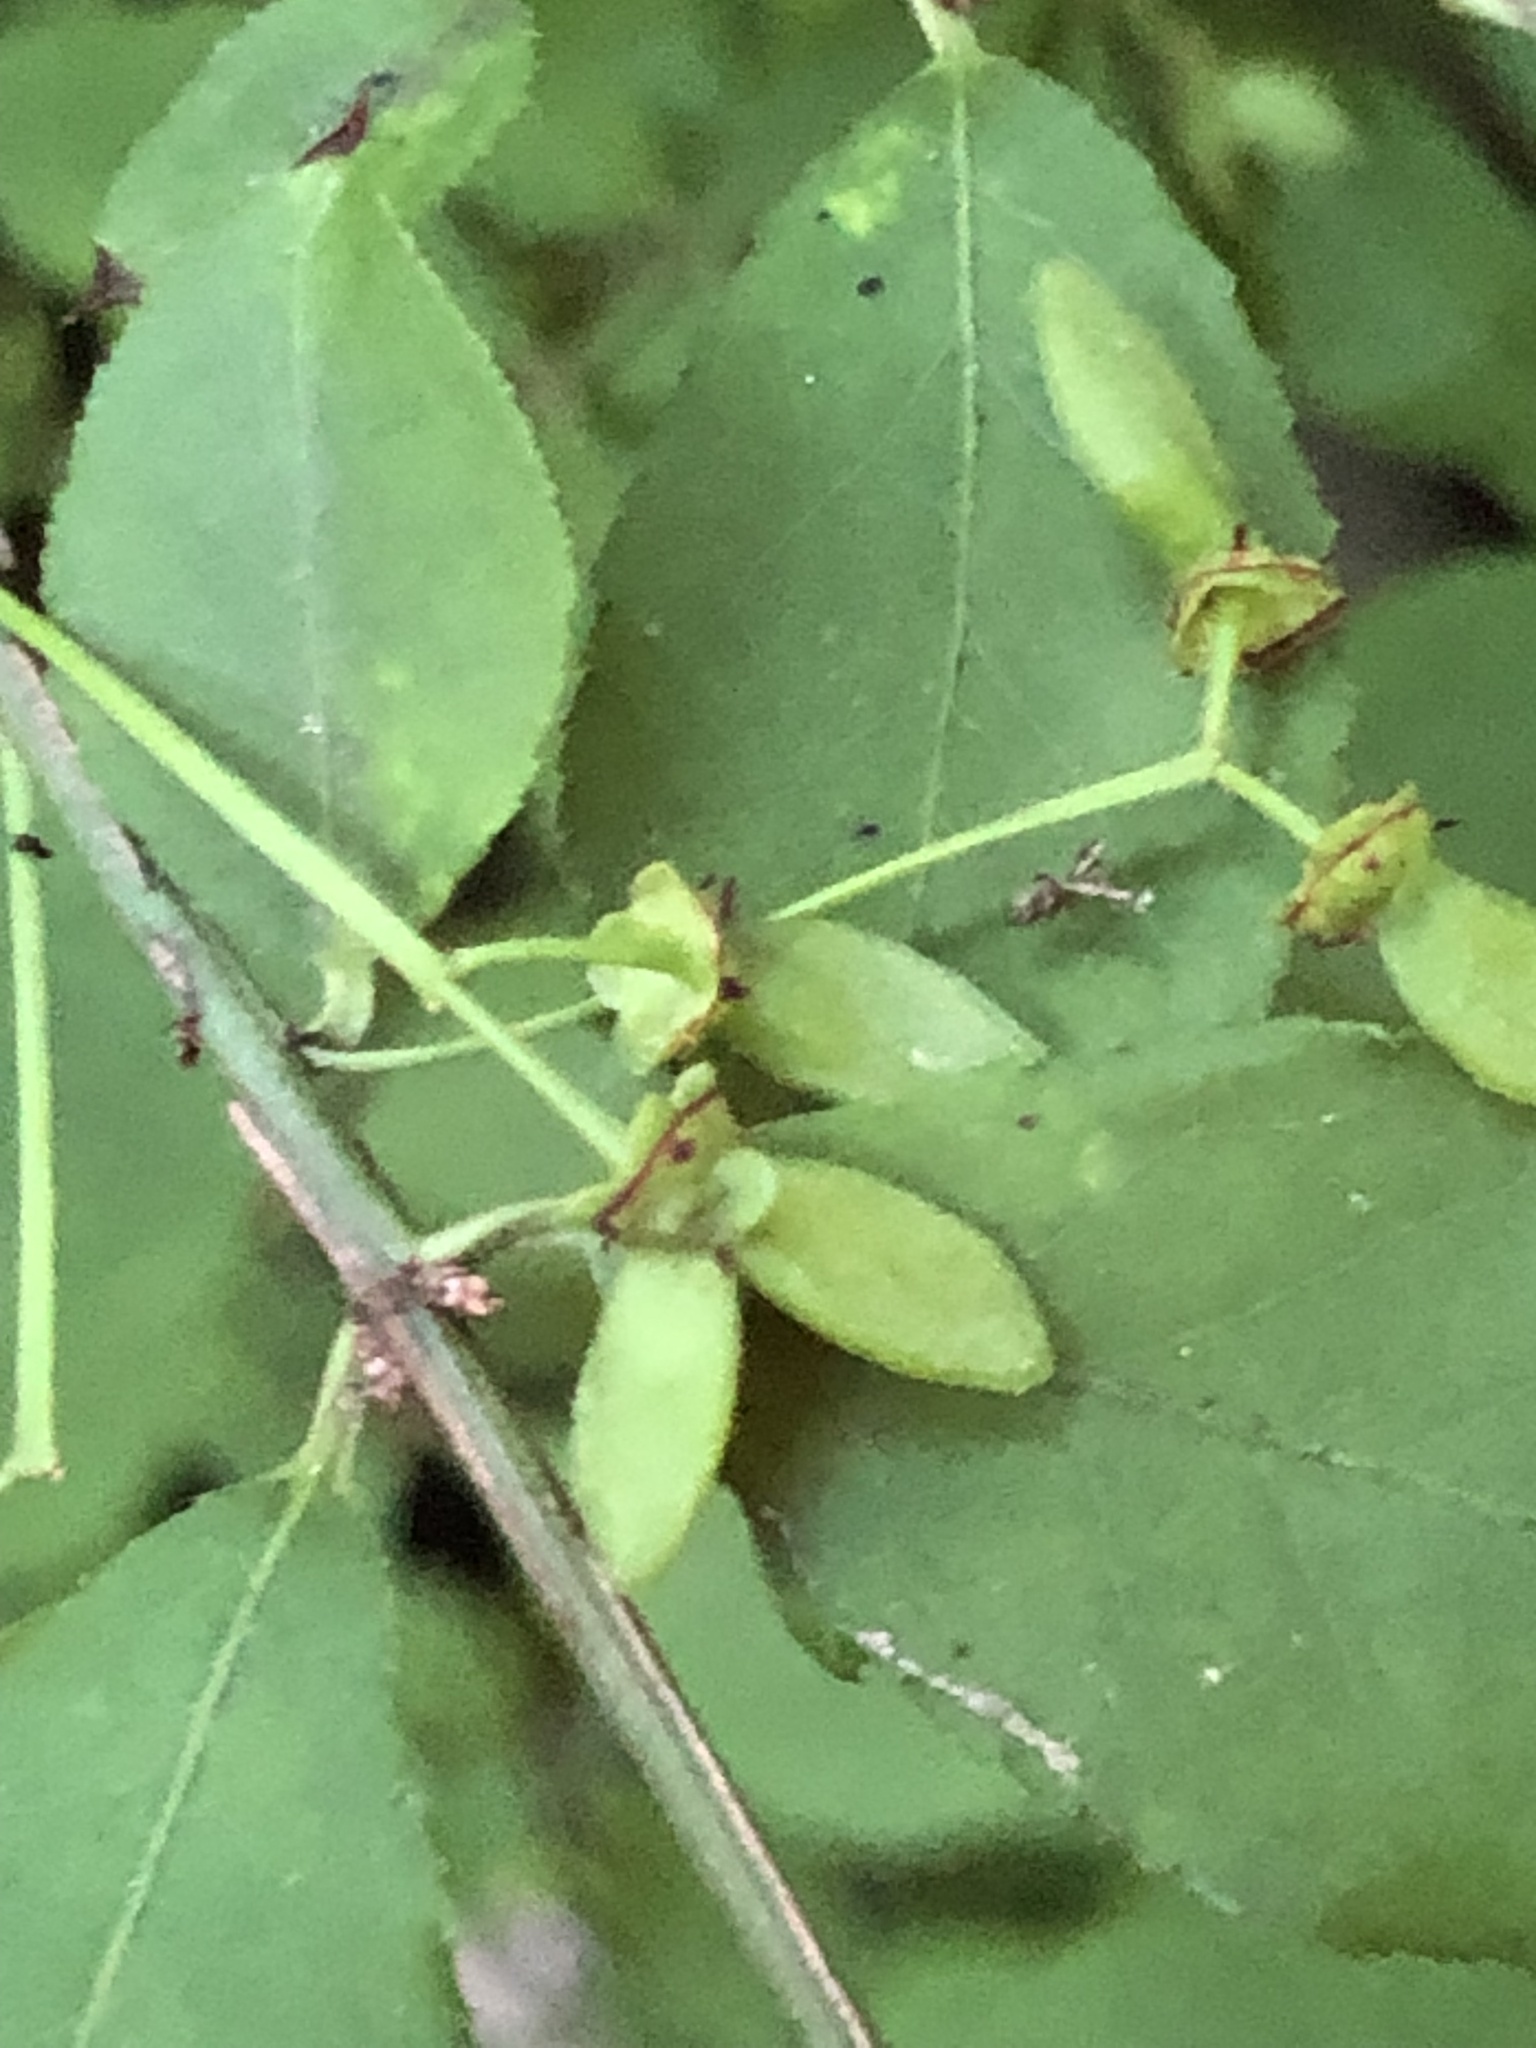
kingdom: Plantae
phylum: Tracheophyta
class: Magnoliopsida
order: Celastrales
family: Celastraceae
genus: Euonymus
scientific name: Euonymus alatus
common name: Winged euonymus
